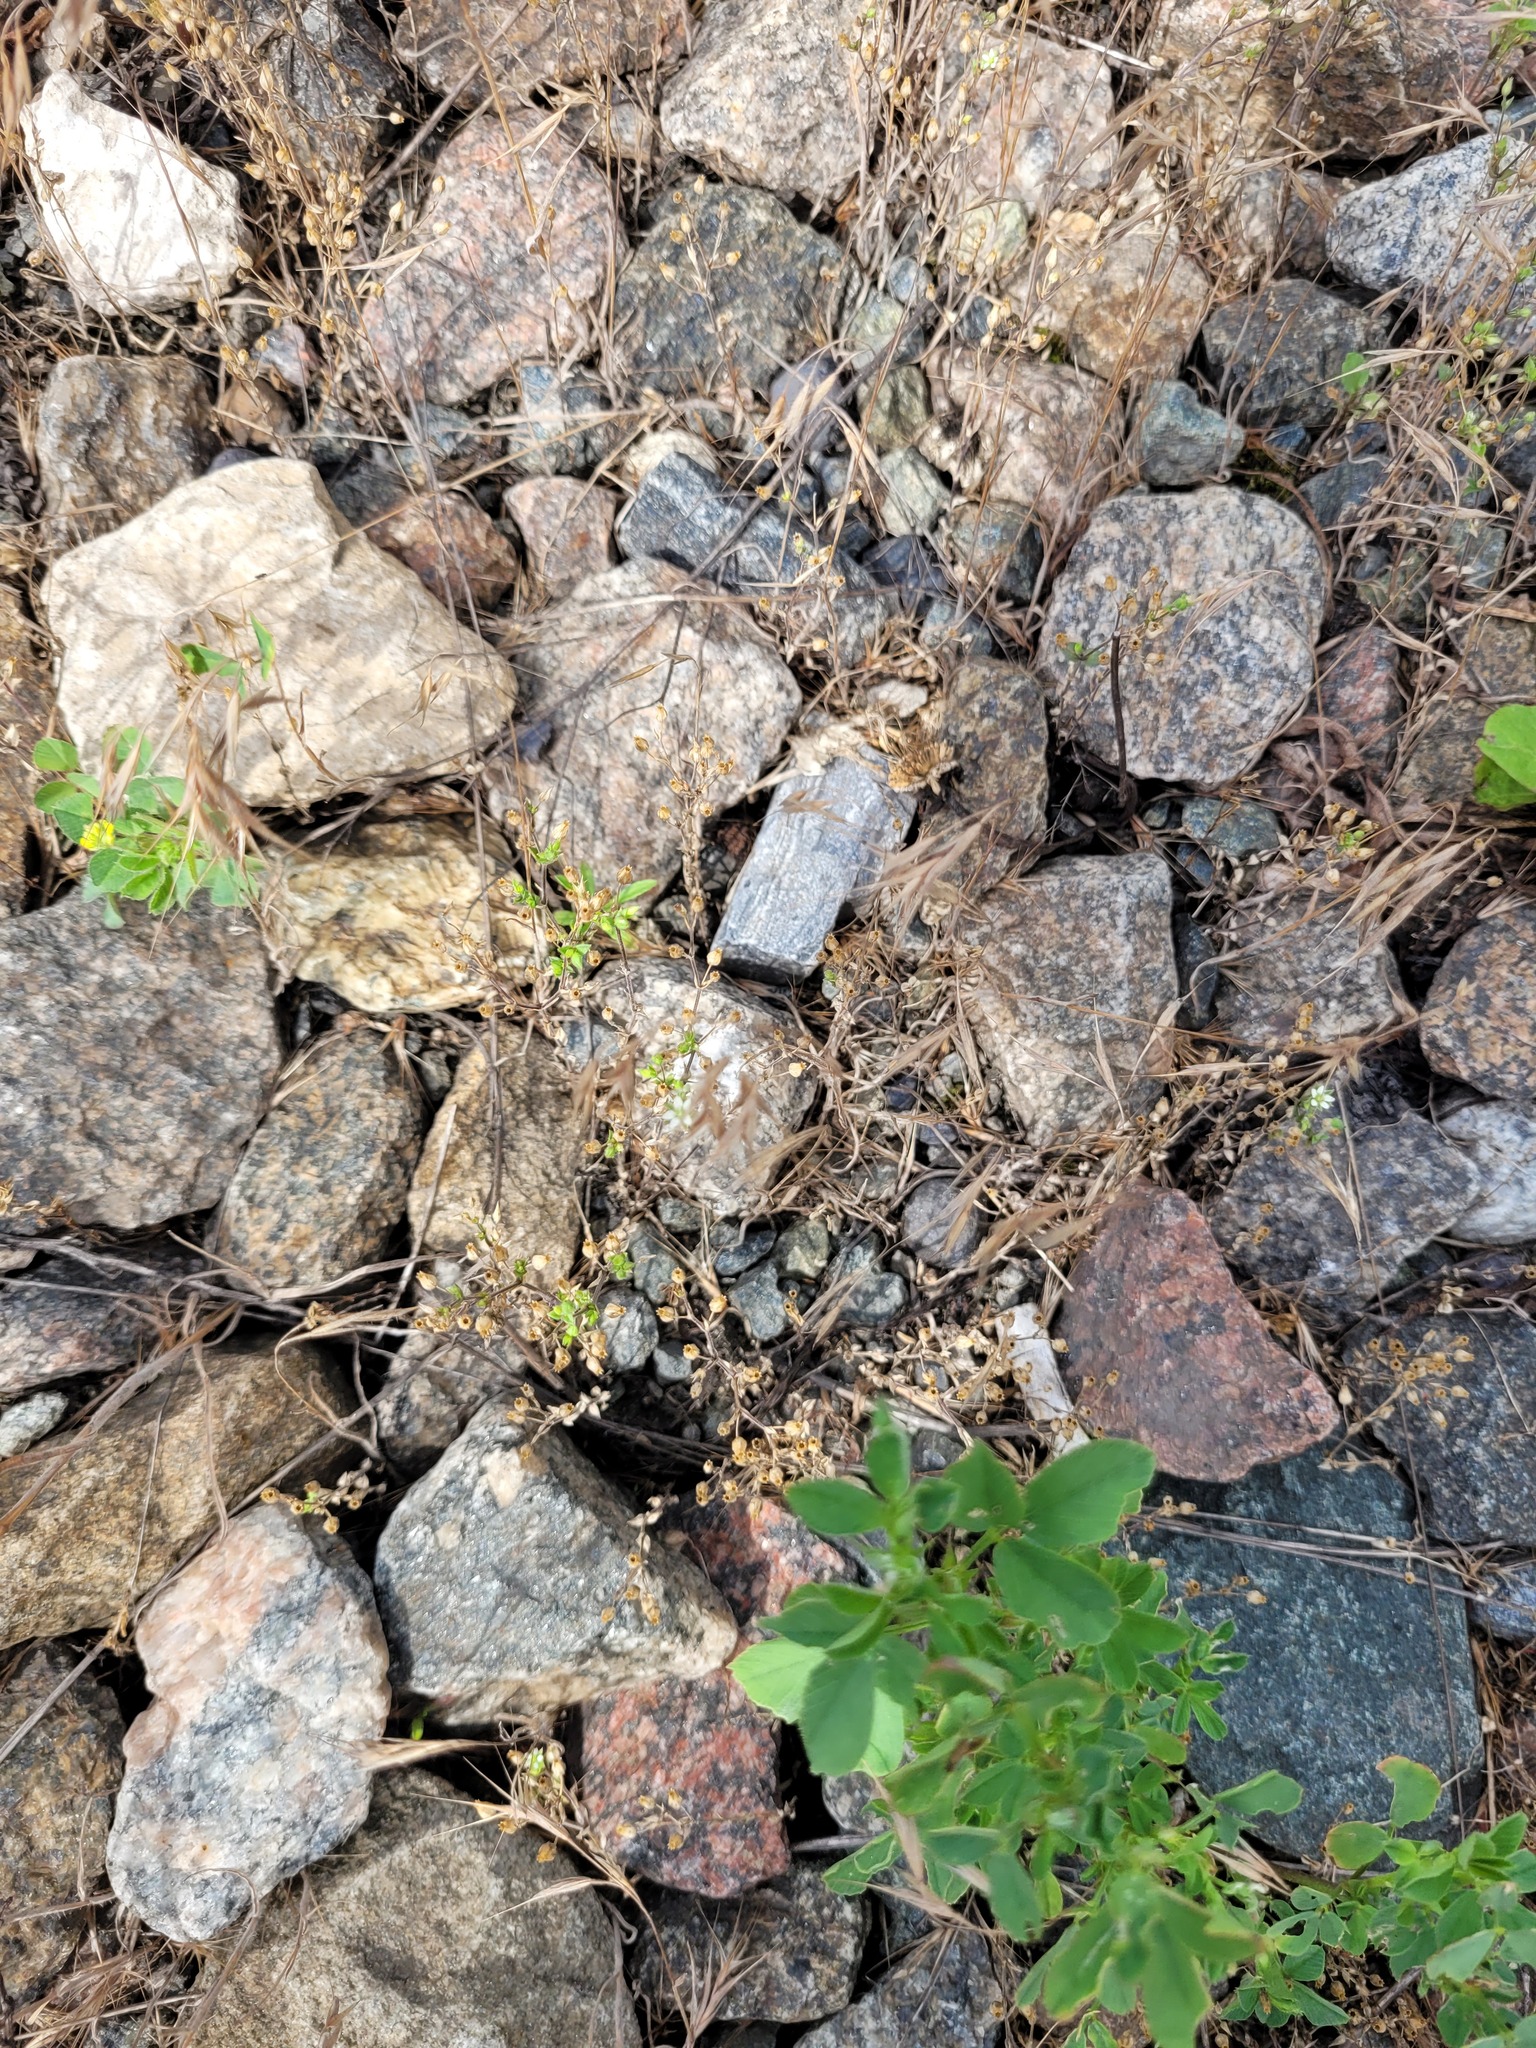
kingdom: Plantae
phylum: Tracheophyta
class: Magnoliopsida
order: Caryophyllales
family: Caryophyllaceae
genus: Arenaria
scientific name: Arenaria serpyllifolia
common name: Thyme-leaved sandwort
